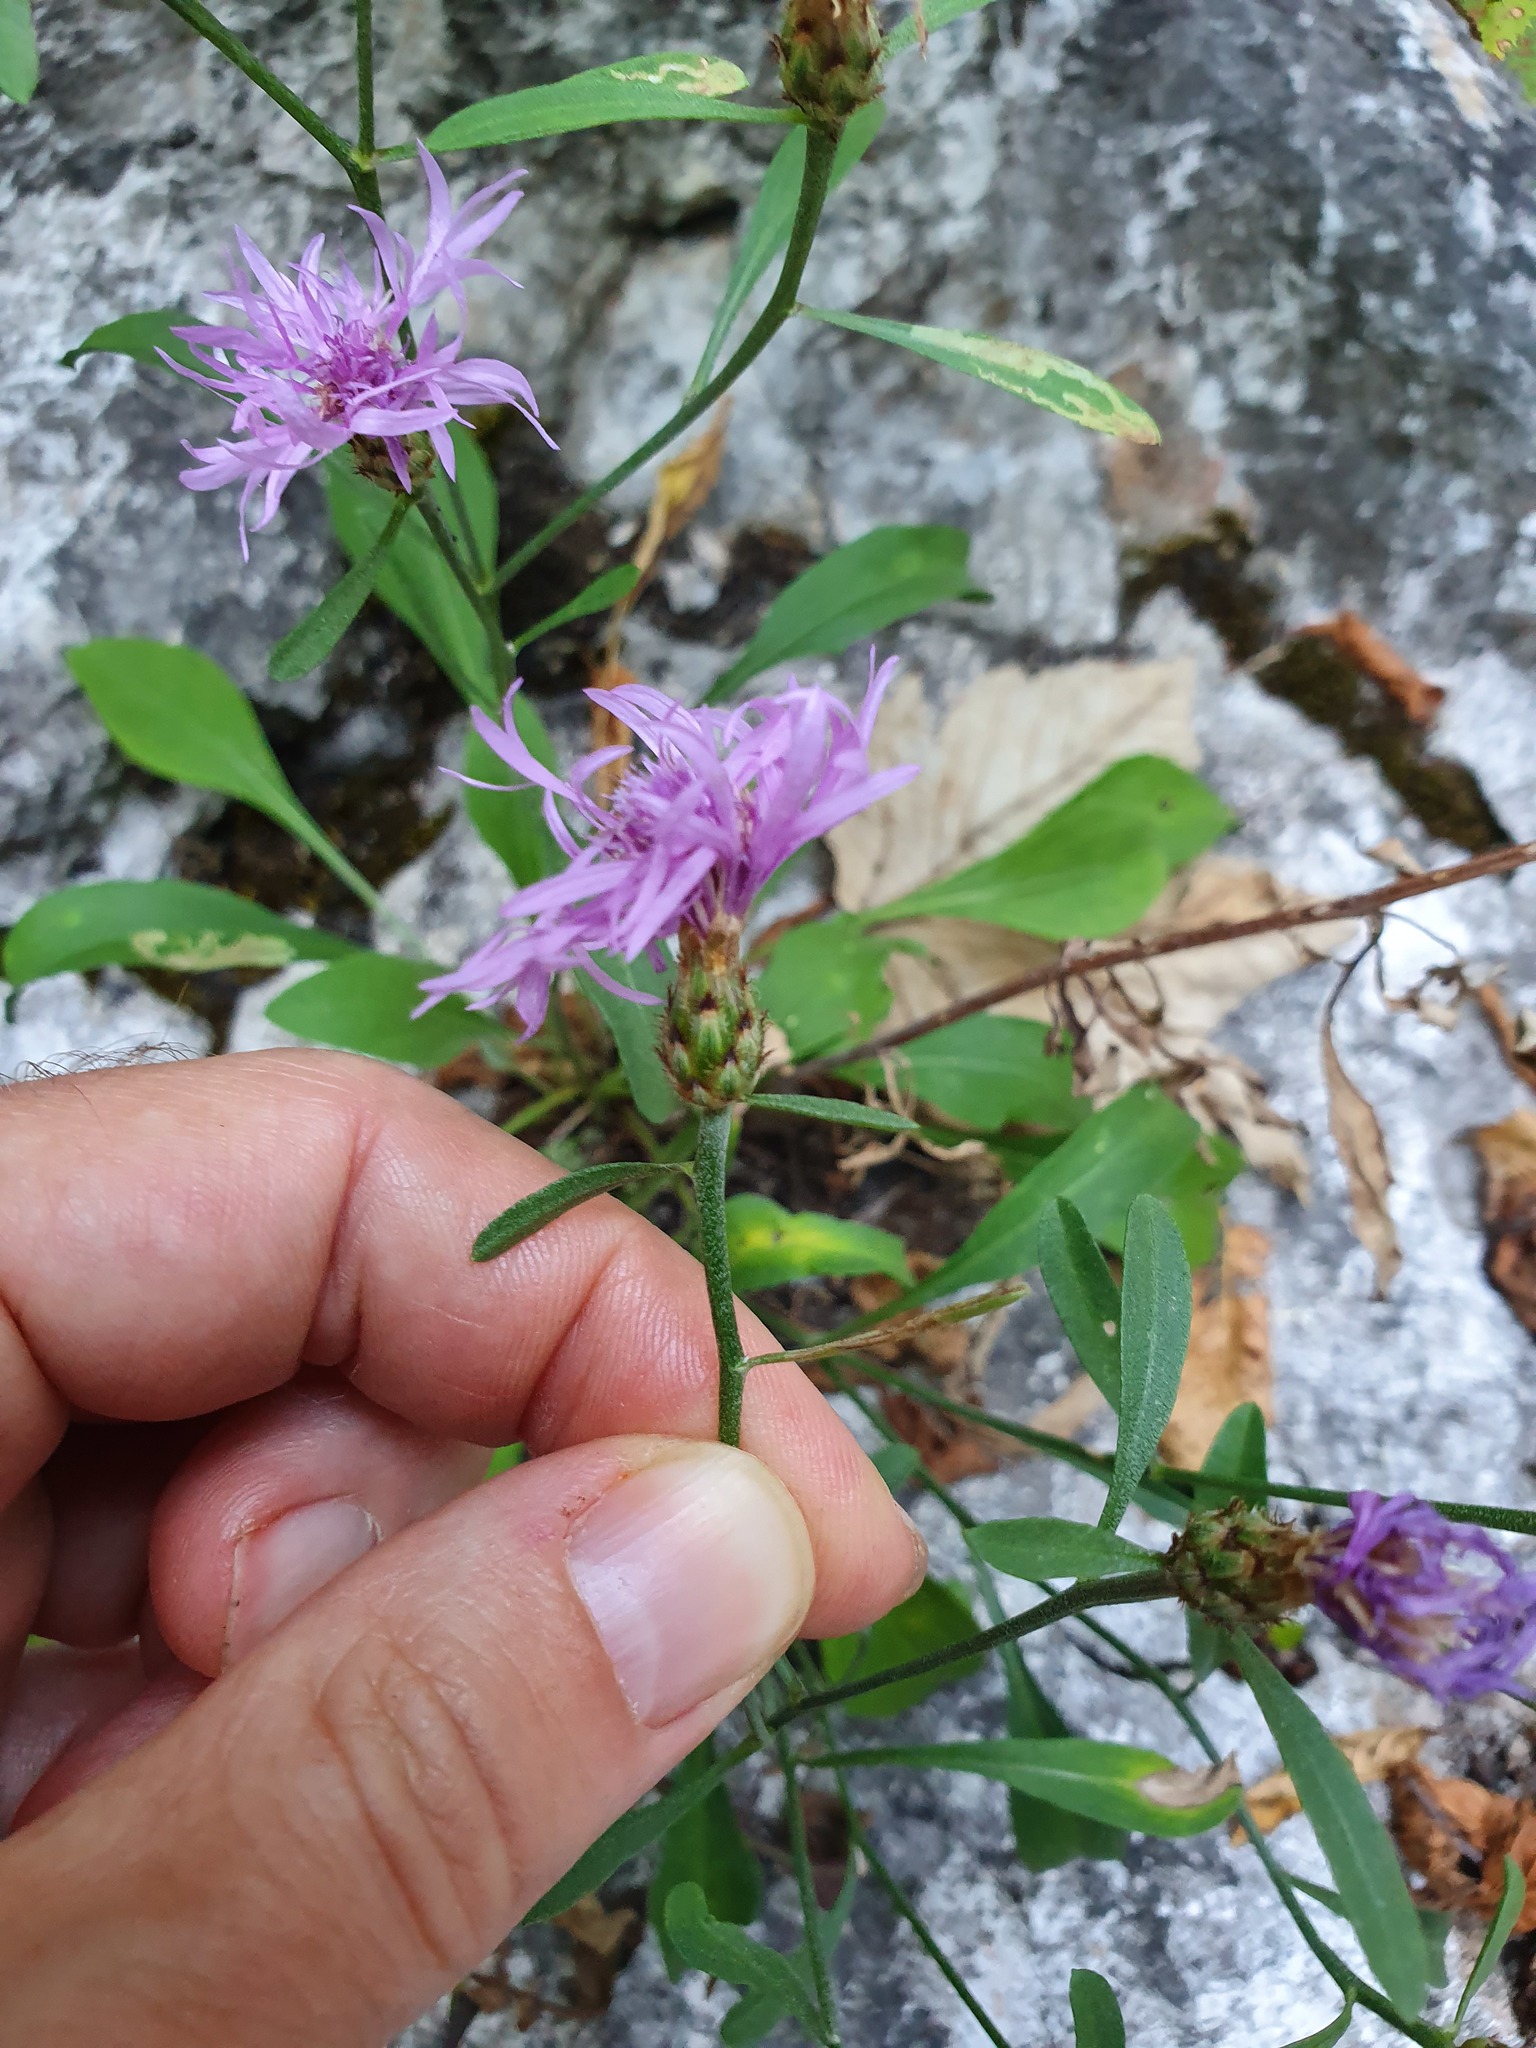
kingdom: Plantae
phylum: Tracheophyta
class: Magnoliopsida
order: Asterales
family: Asteraceae
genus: Centaurea
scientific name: Centaurea derventana
